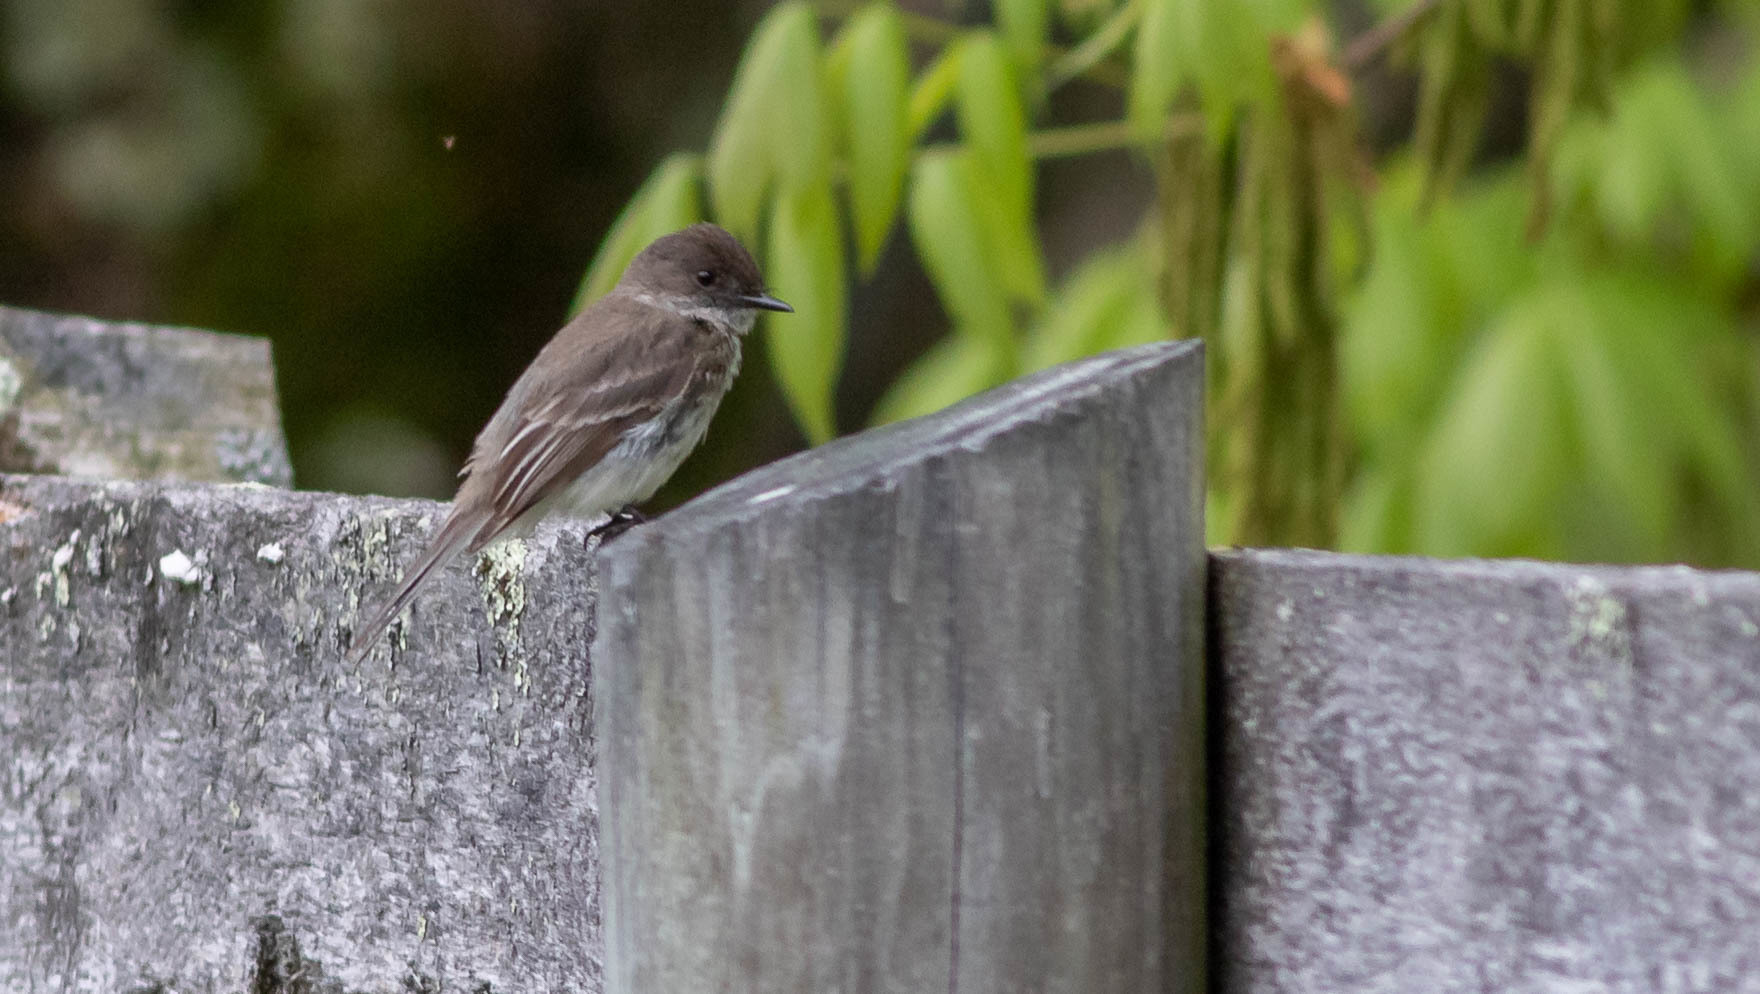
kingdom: Animalia
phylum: Chordata
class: Aves
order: Passeriformes
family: Tyrannidae
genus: Sayornis
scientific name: Sayornis phoebe
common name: Eastern phoebe
